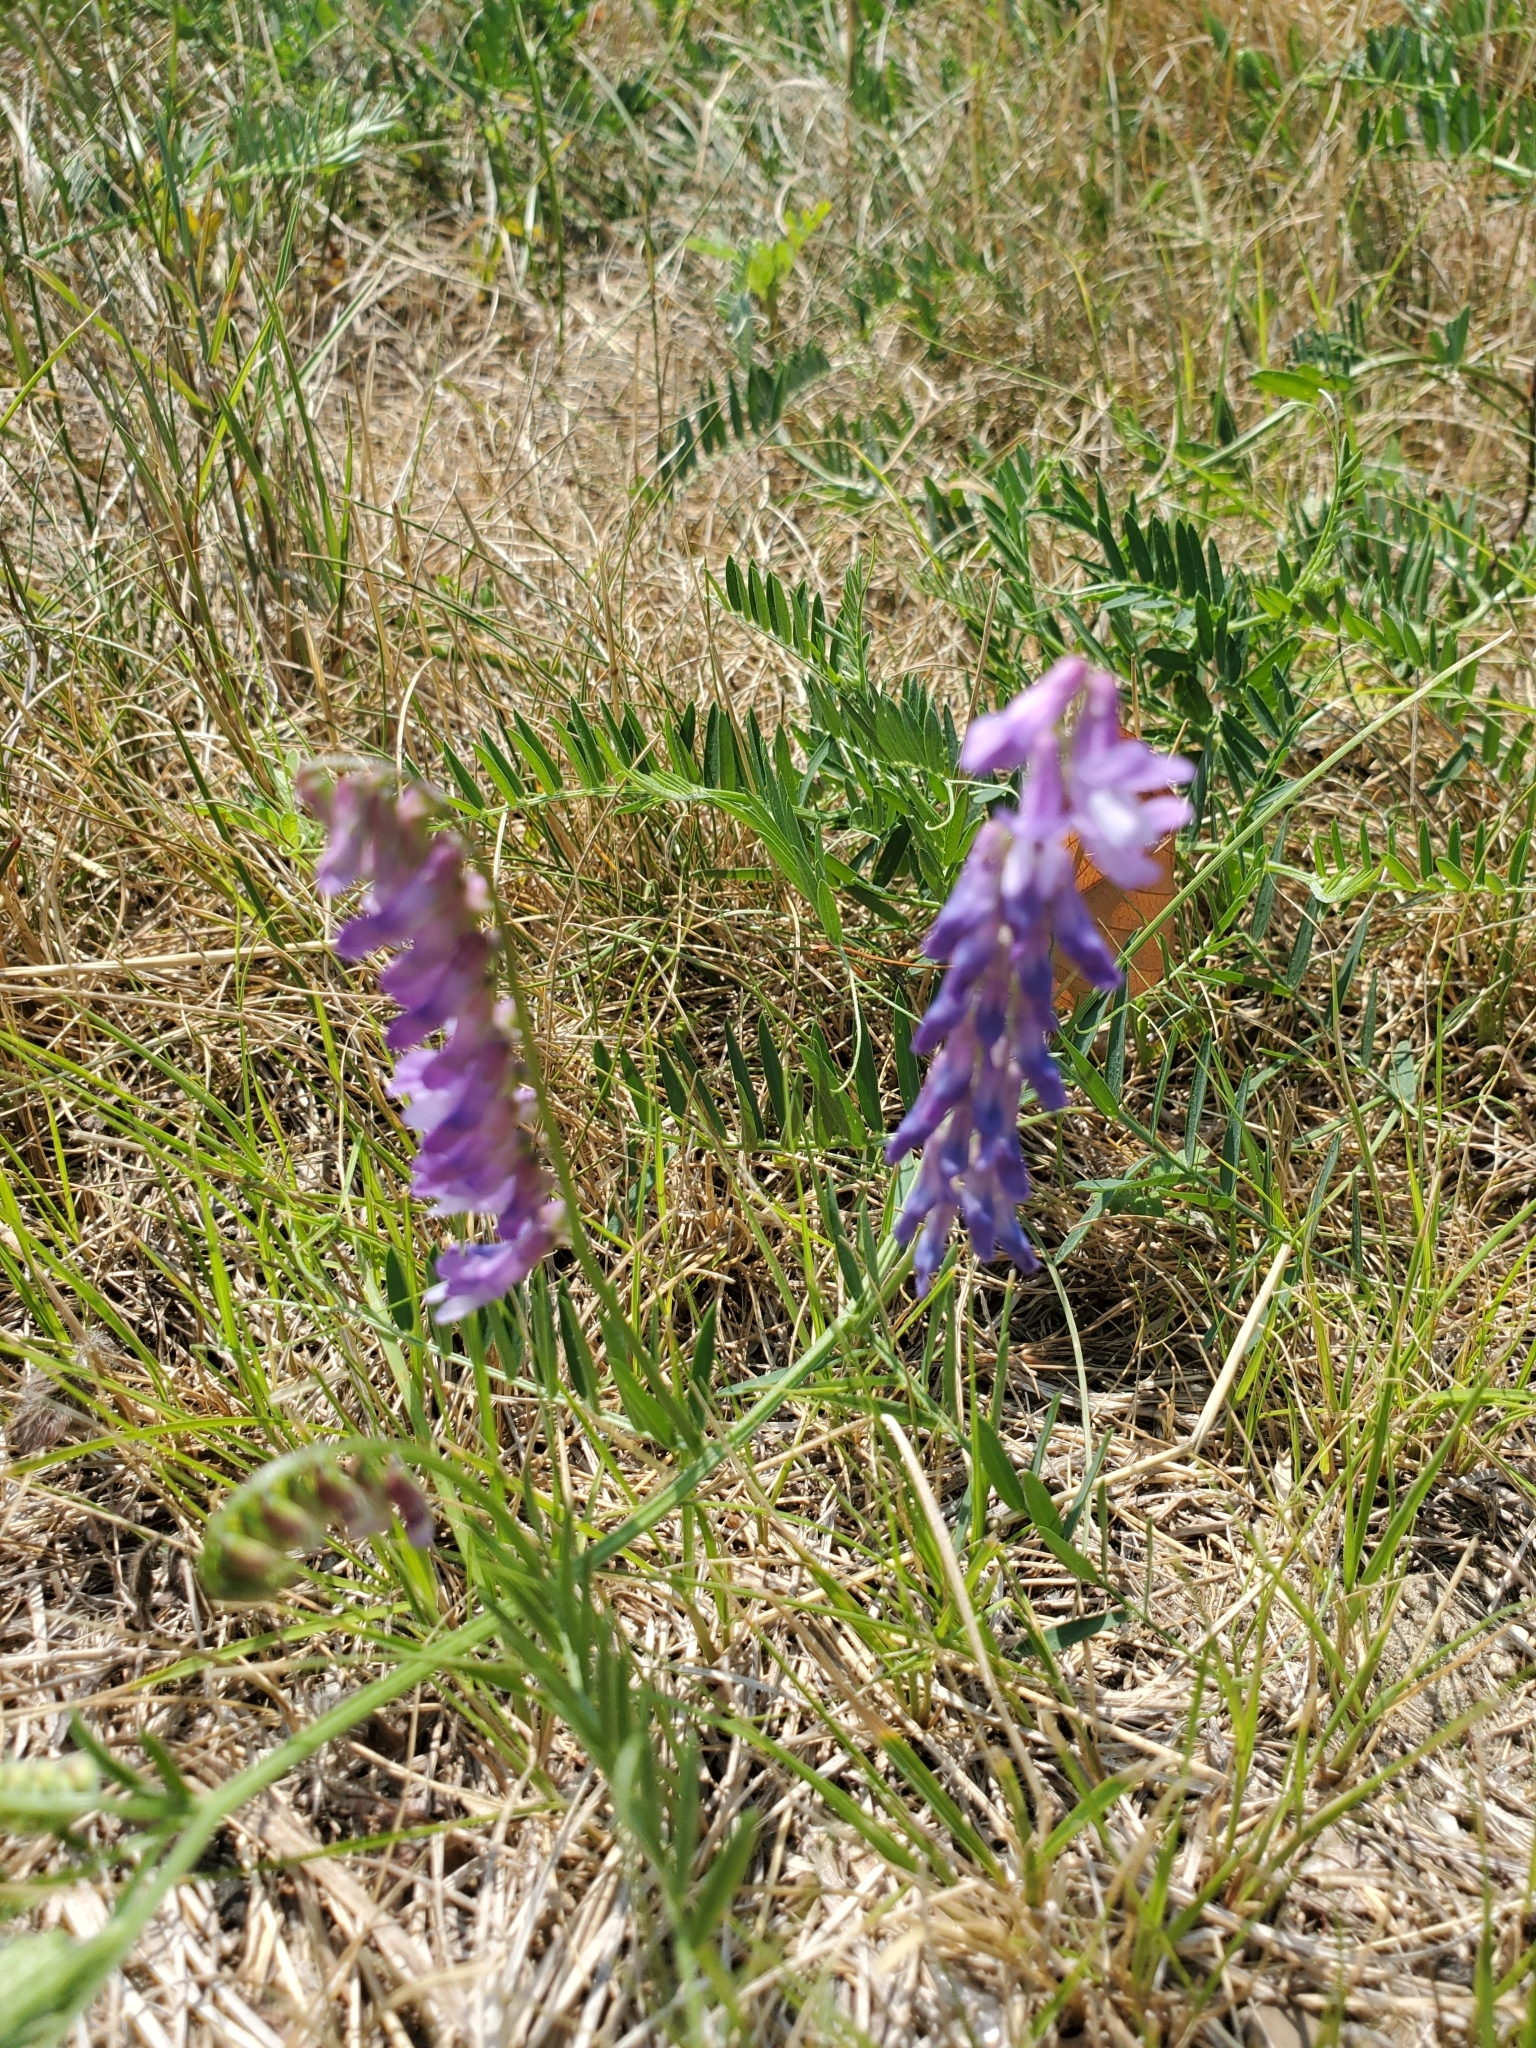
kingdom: Plantae
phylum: Tracheophyta
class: Magnoliopsida
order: Fabales
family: Fabaceae
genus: Vicia
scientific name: Vicia cracca
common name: Bird vetch
